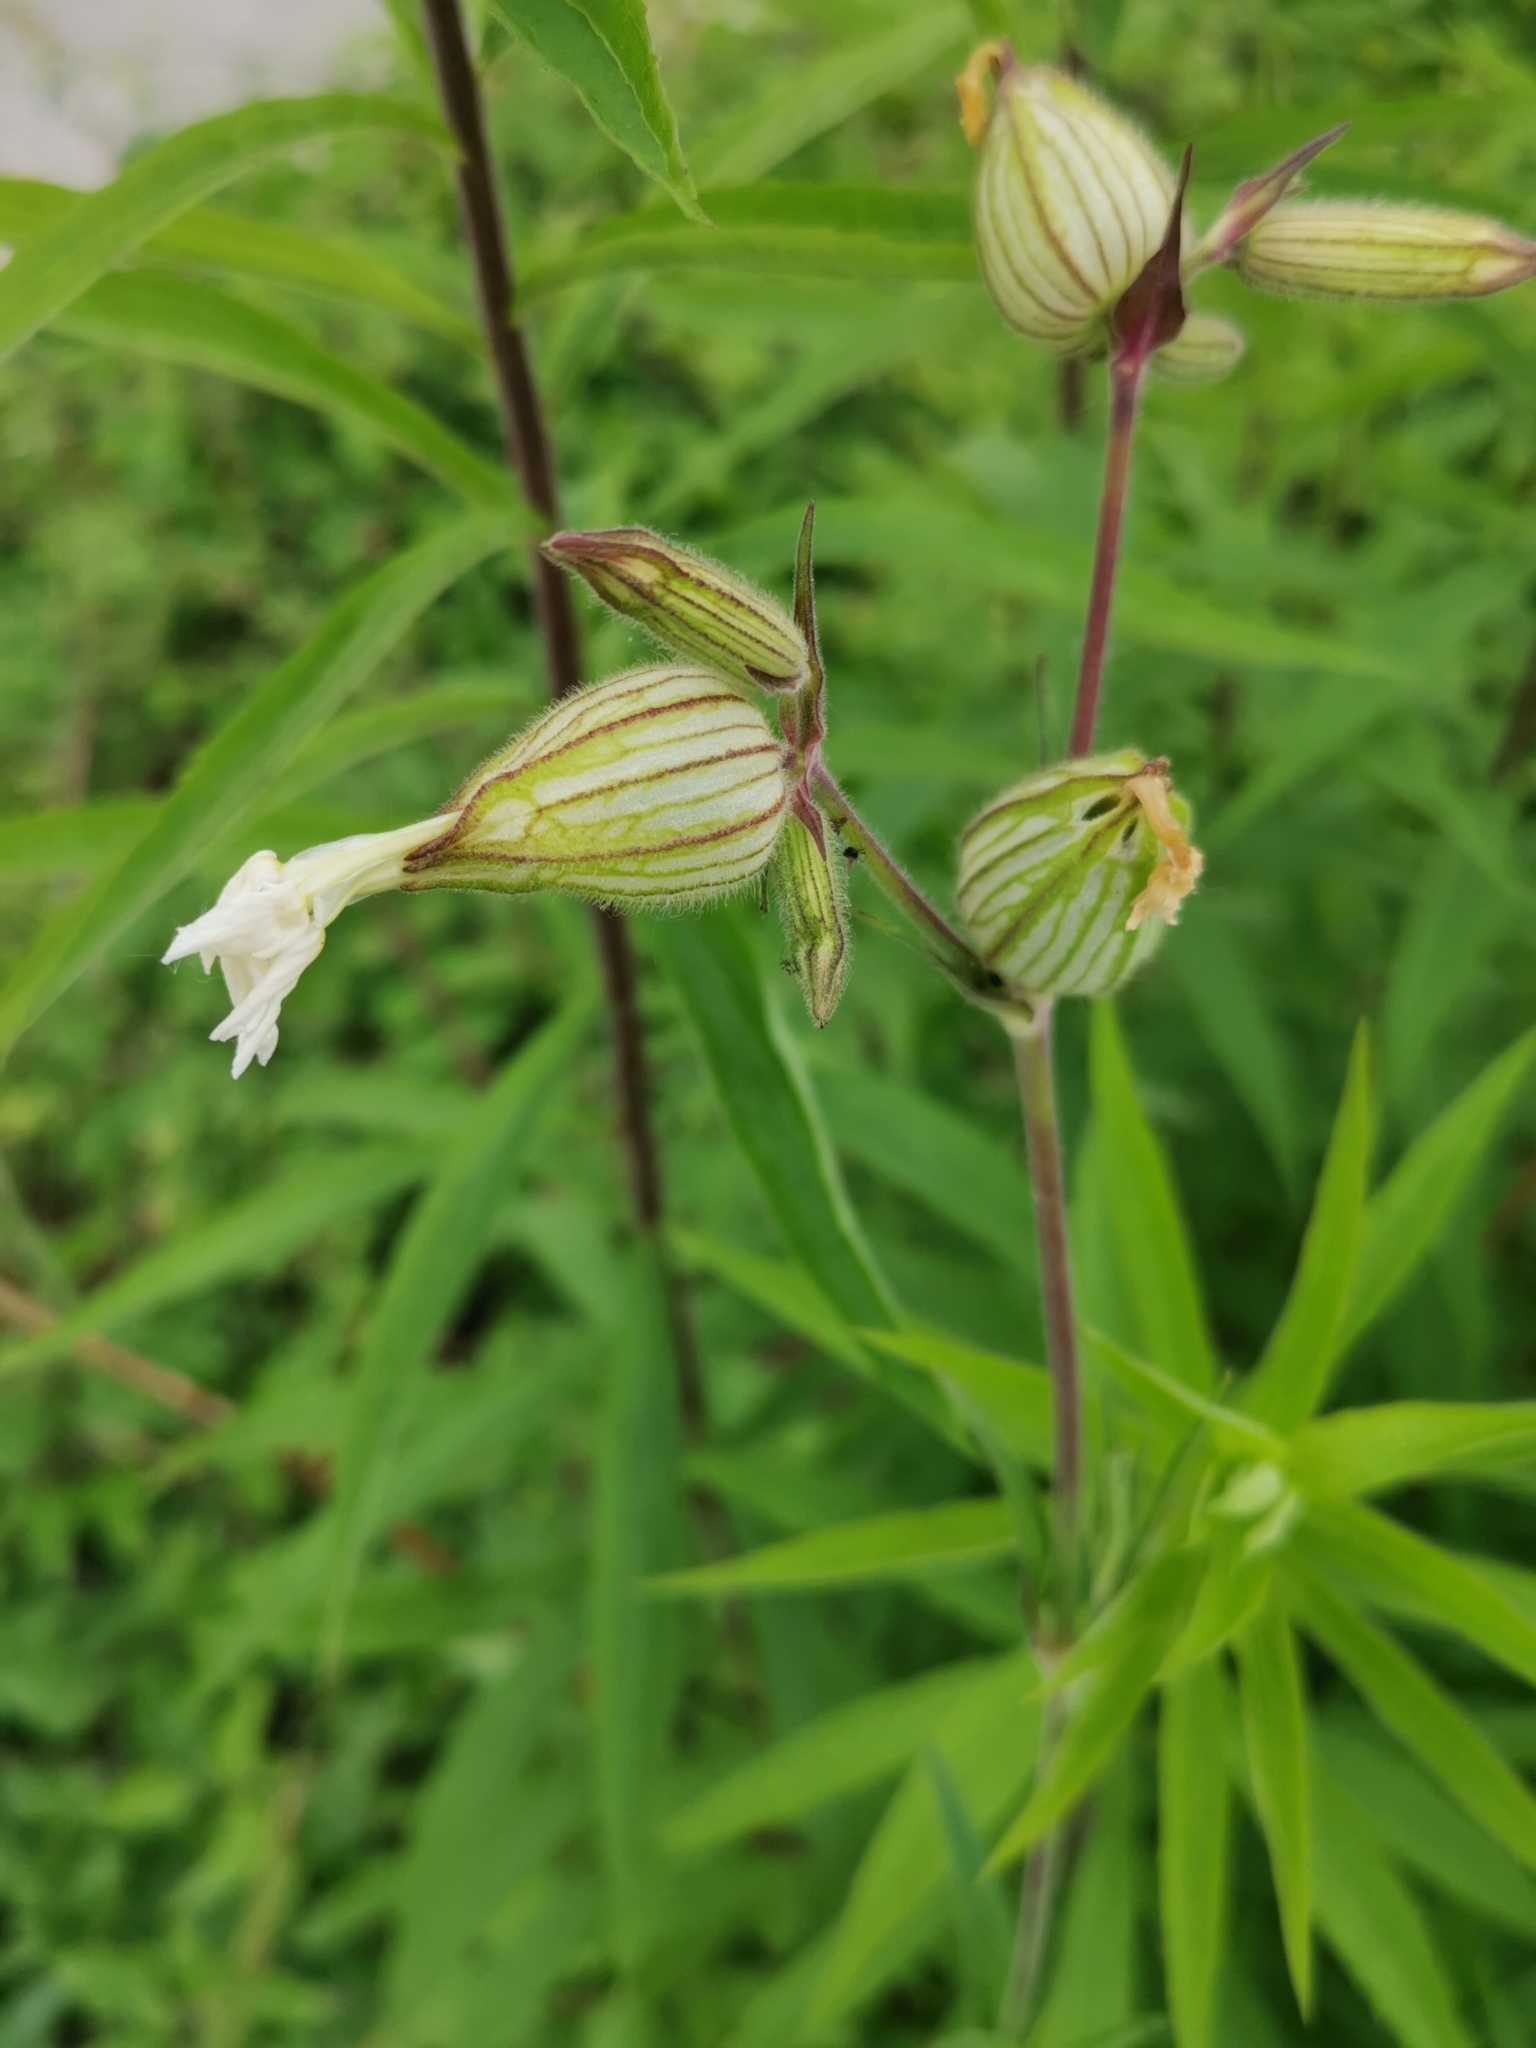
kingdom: Plantae
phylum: Tracheophyta
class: Magnoliopsida
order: Caryophyllales
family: Caryophyllaceae
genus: Silene
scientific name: Silene latifolia
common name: White campion
